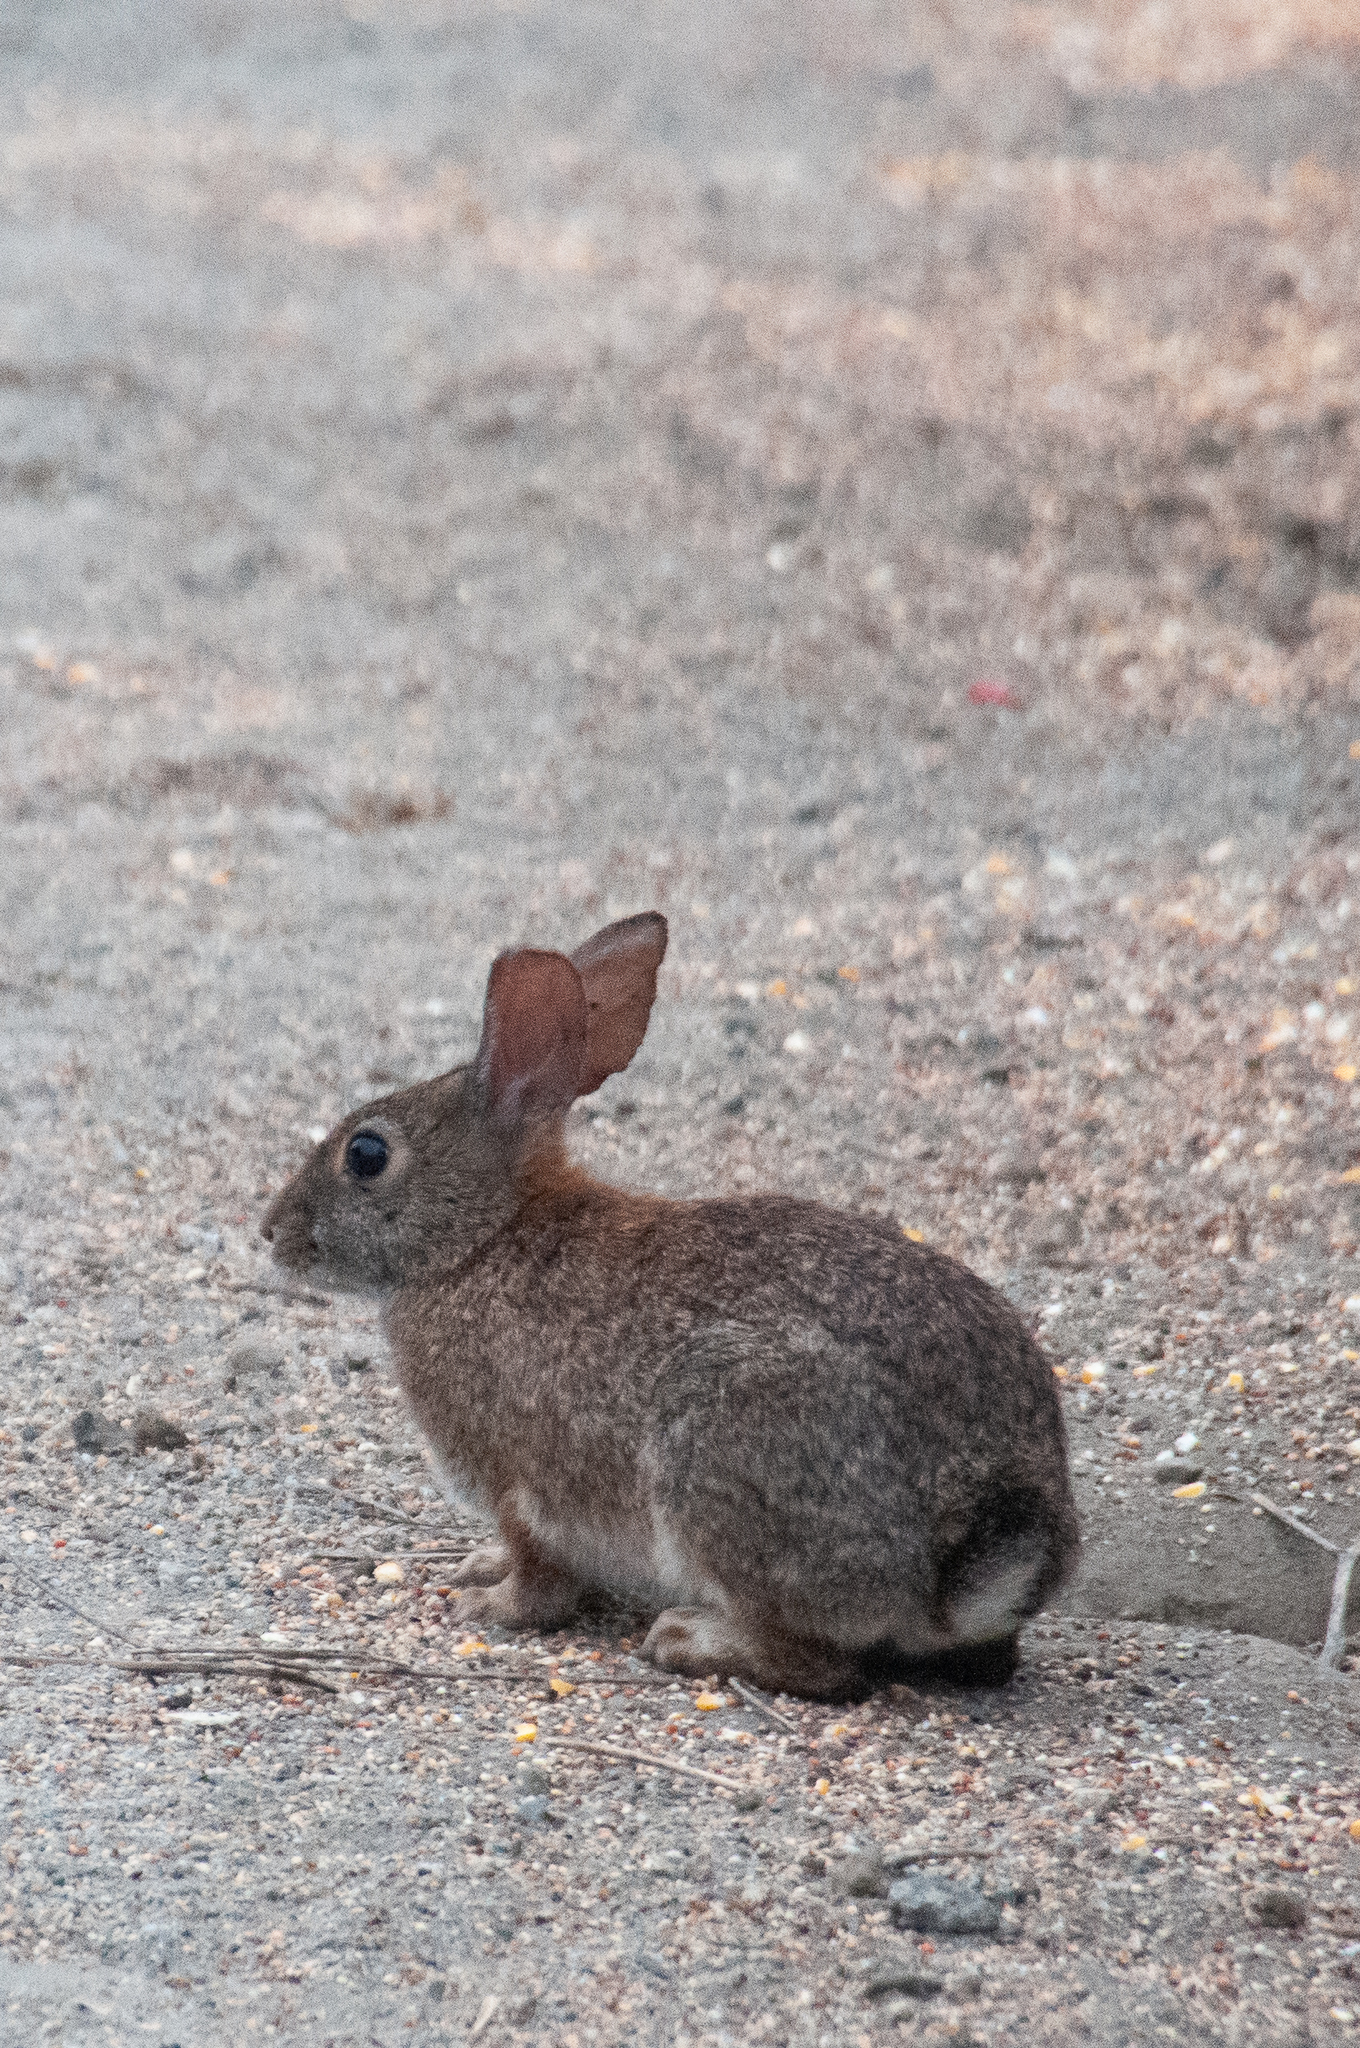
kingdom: Animalia
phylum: Chordata
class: Mammalia
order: Lagomorpha
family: Leporidae
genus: Sylvilagus
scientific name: Sylvilagus bachmani
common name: Brush rabbit
